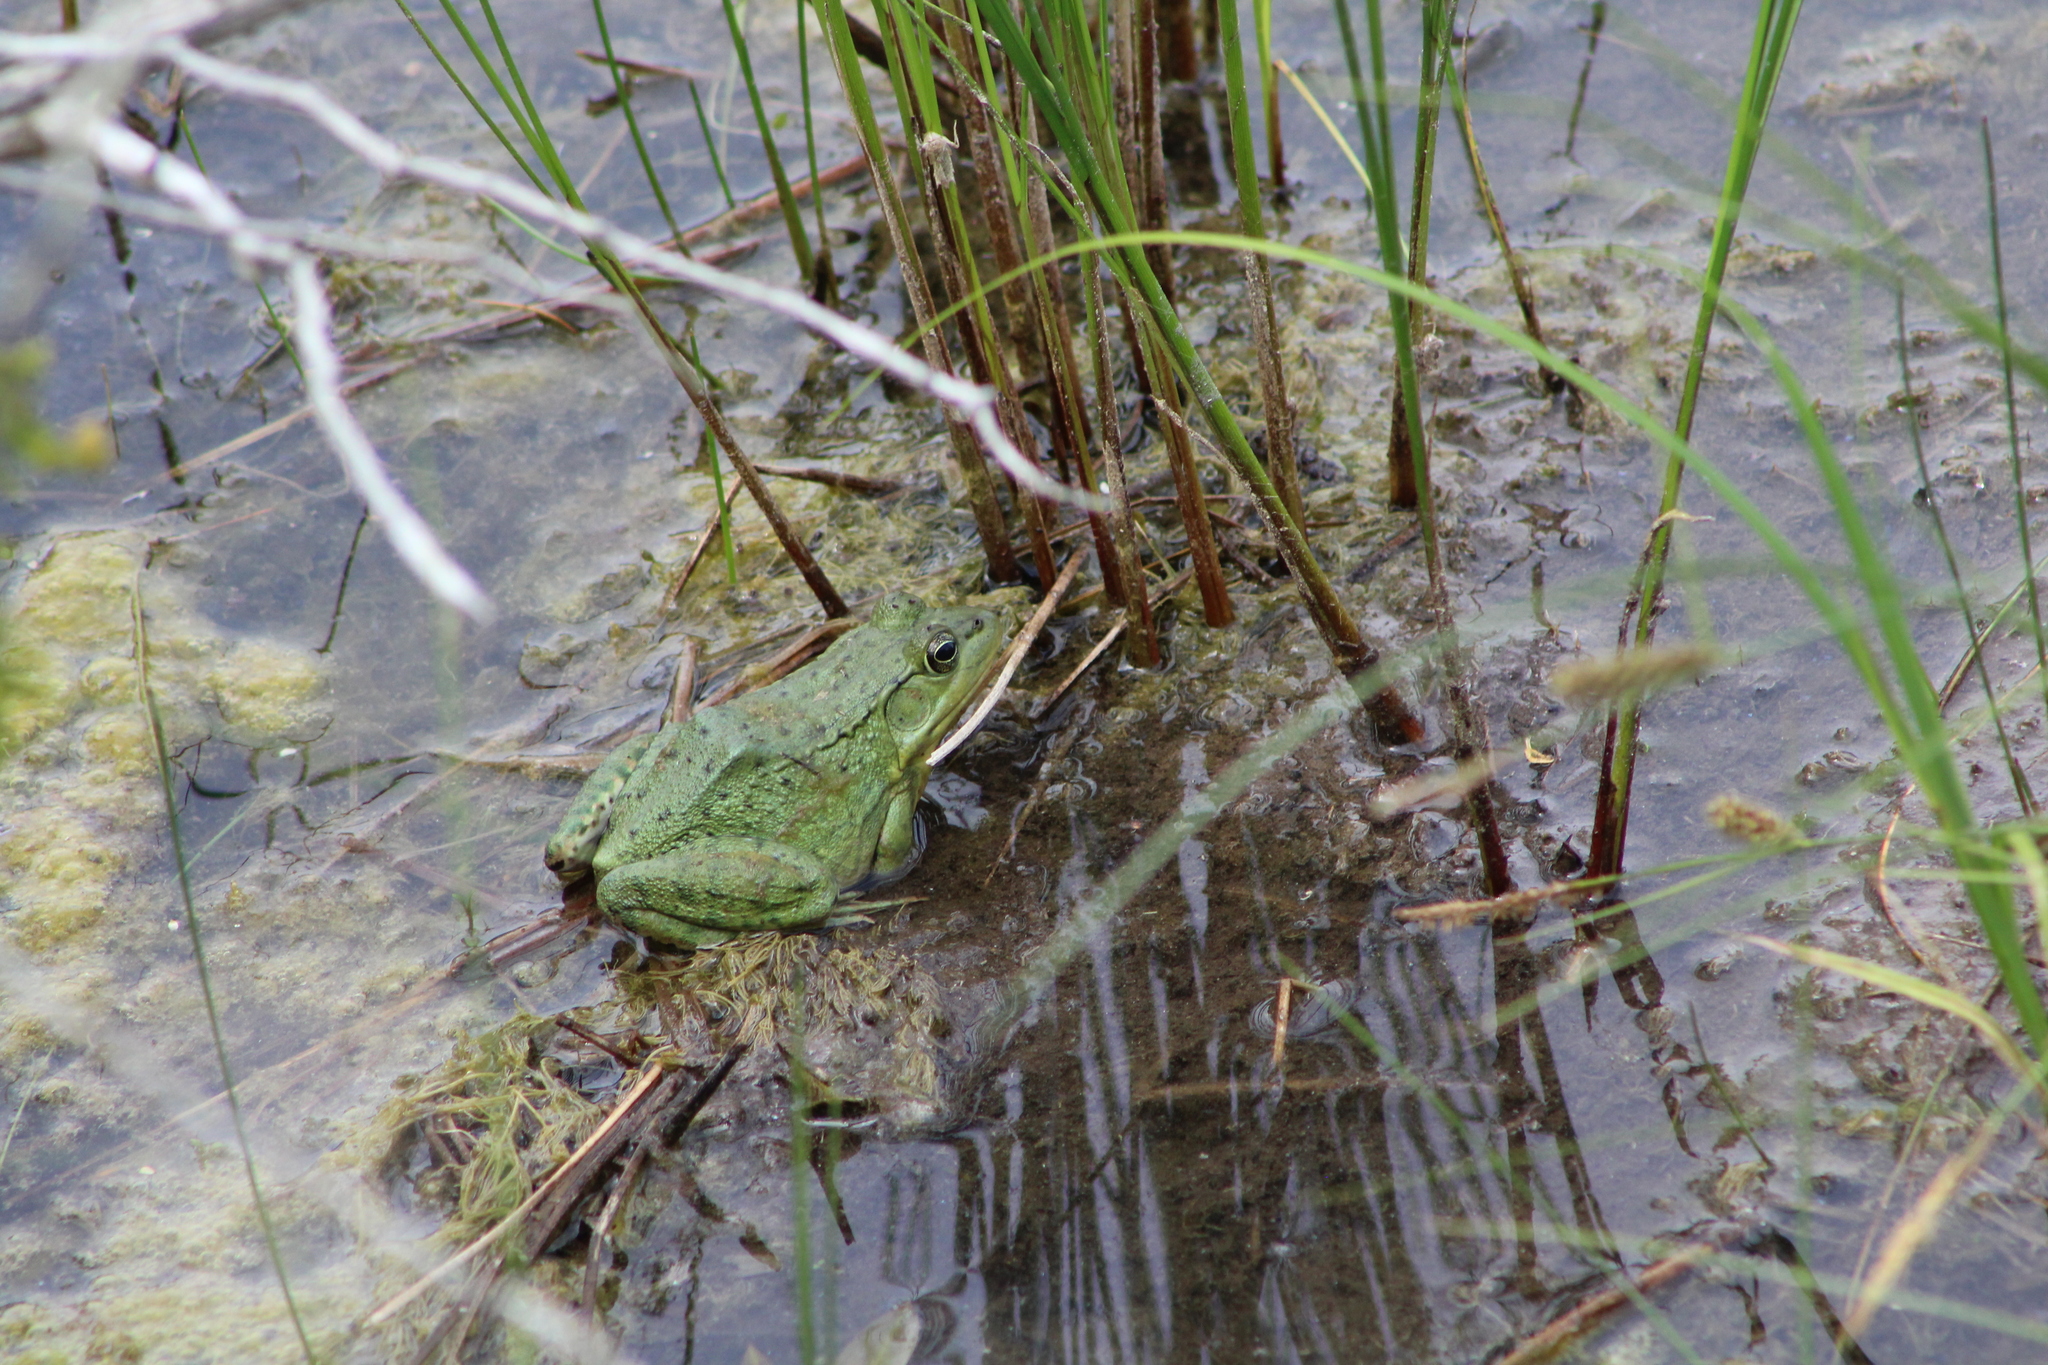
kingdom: Animalia
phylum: Chordata
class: Amphibia
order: Anura
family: Ranidae
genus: Lithobates
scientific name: Lithobates clamitans
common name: Green frog
